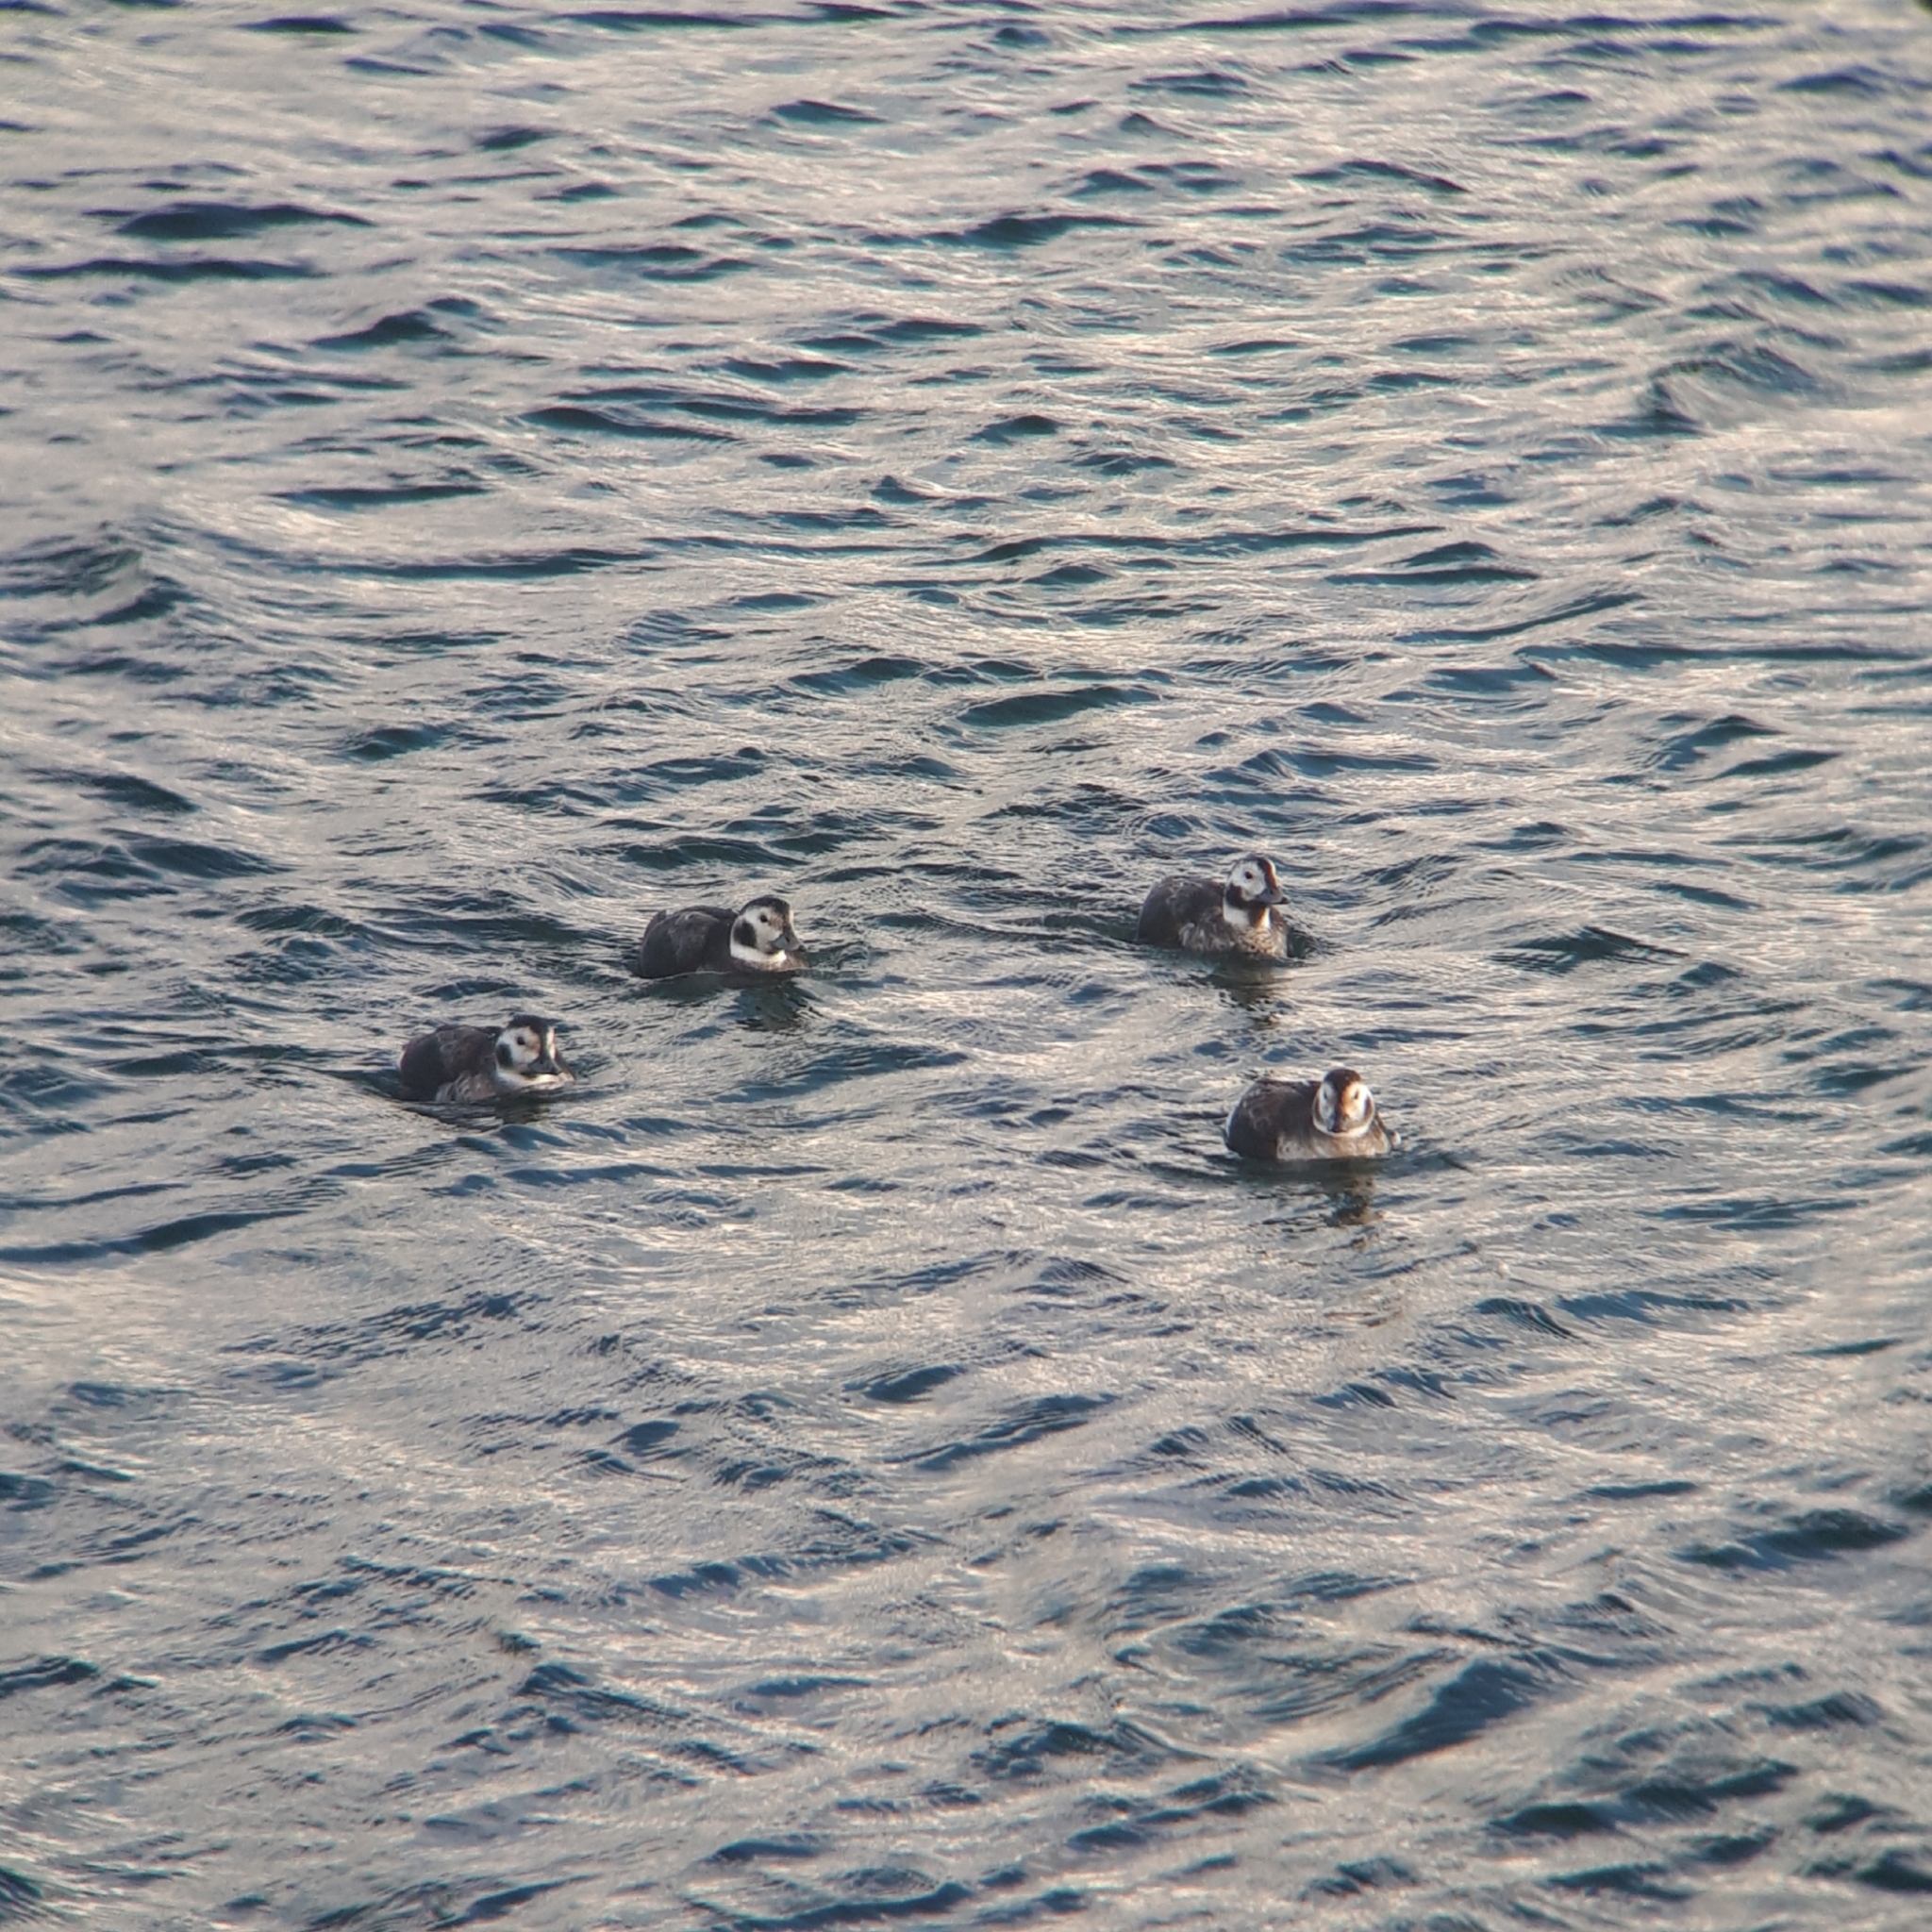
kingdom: Animalia
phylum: Chordata
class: Aves
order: Anseriformes
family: Anatidae
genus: Clangula
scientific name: Clangula hyemalis
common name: Long-tailed duck
